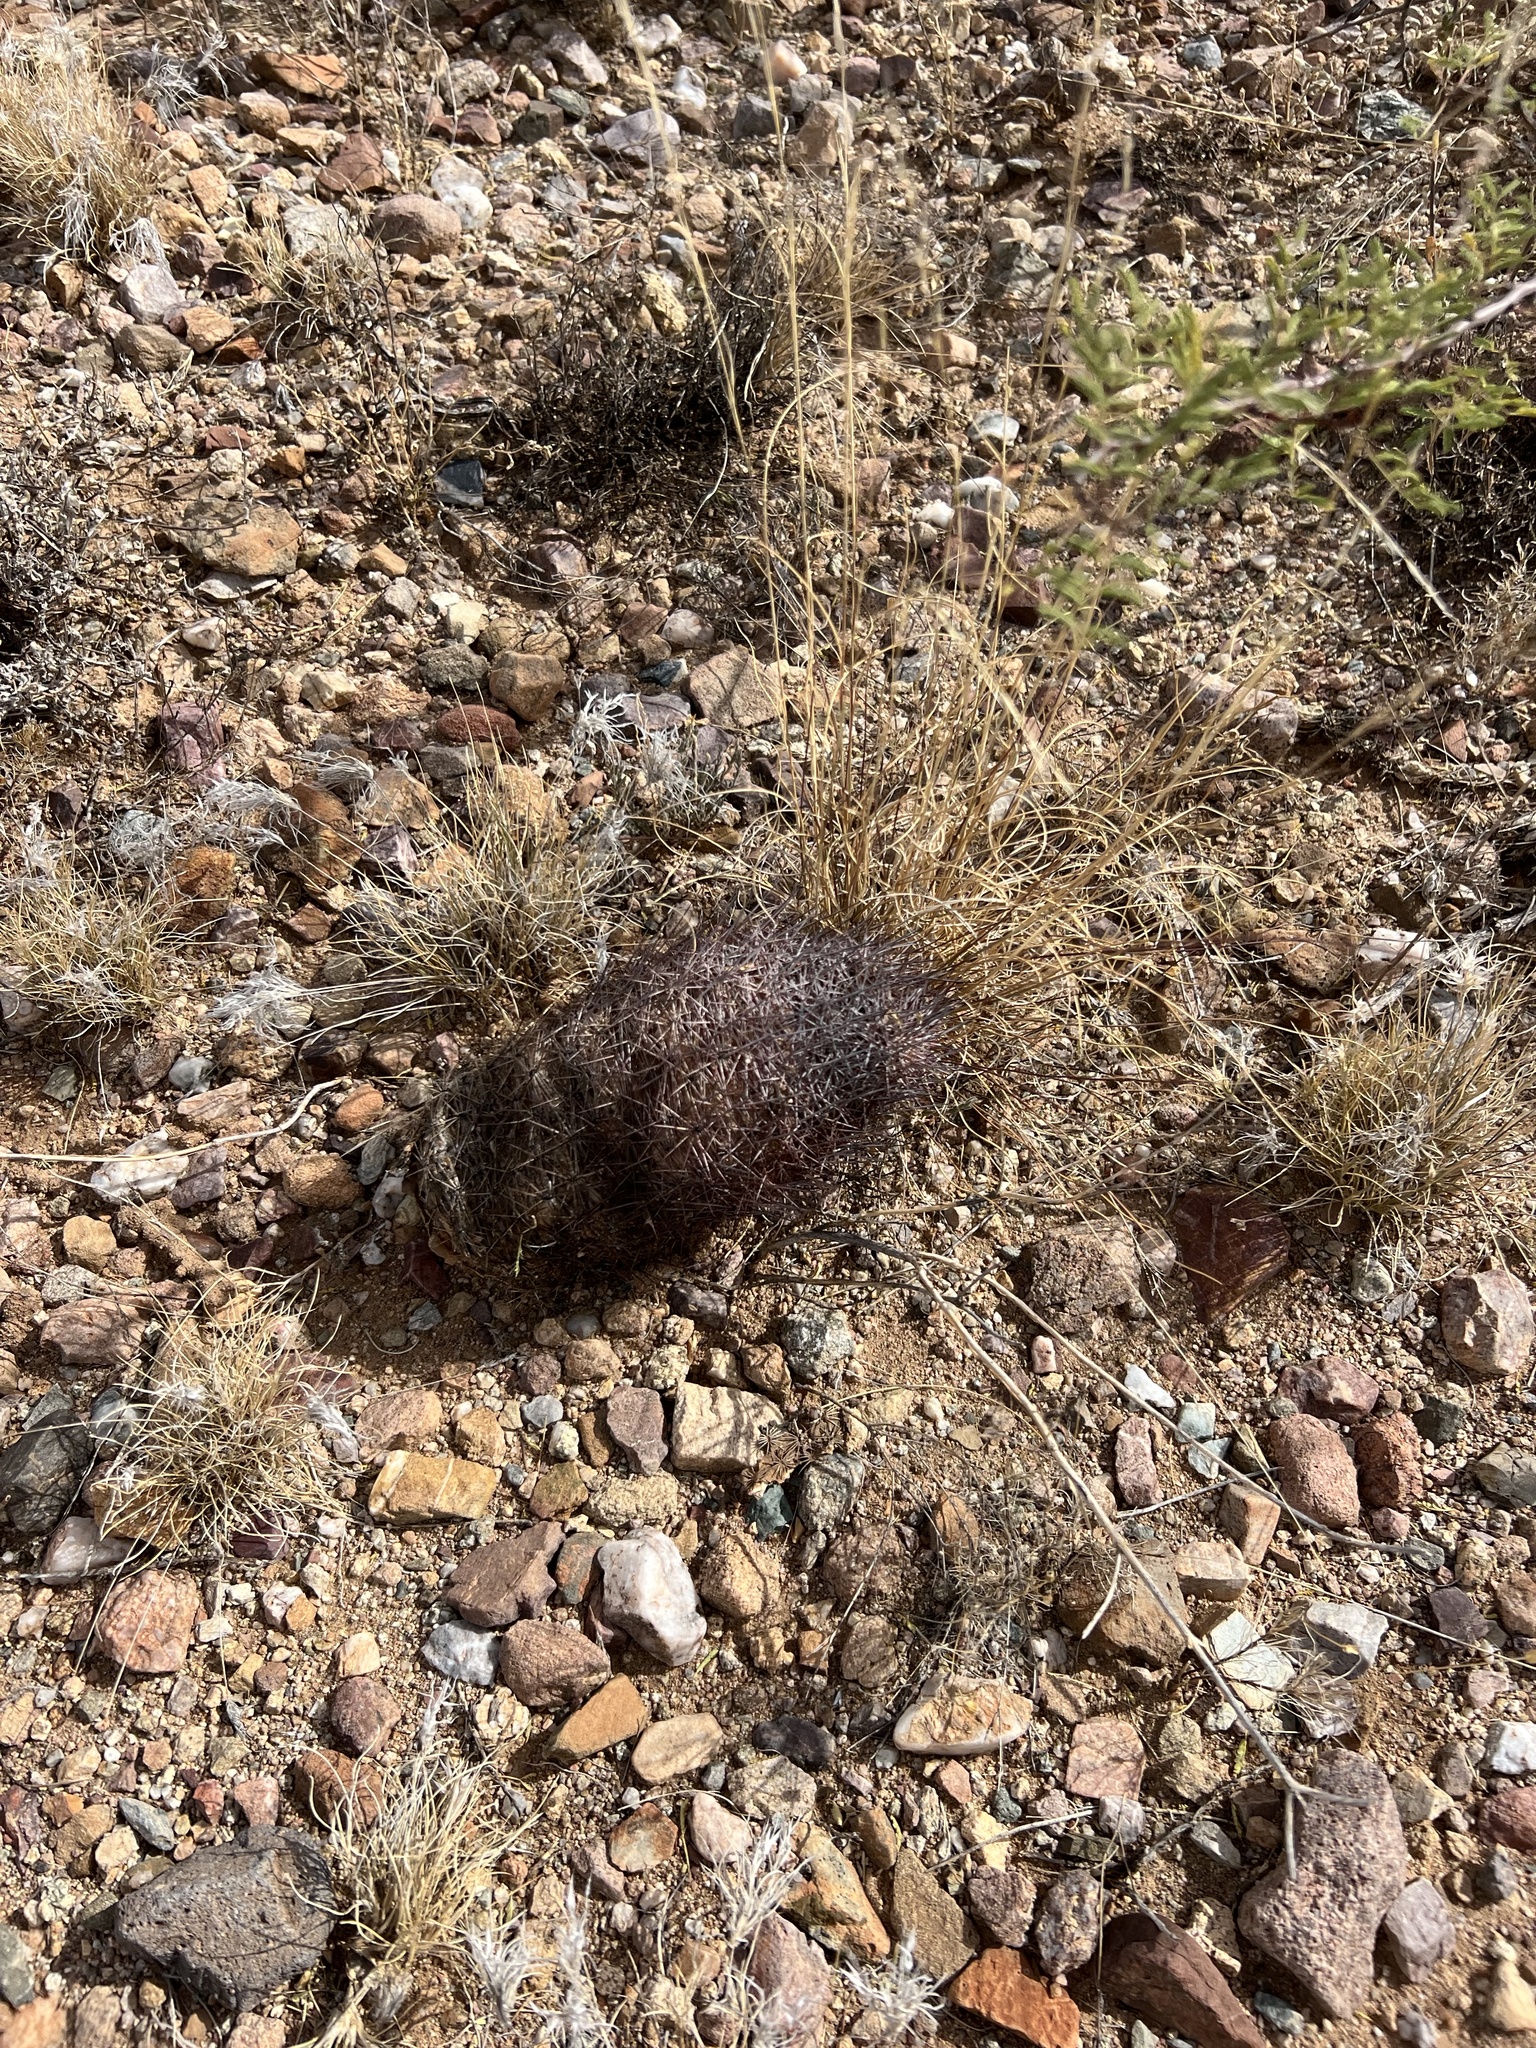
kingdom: Plantae
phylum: Tracheophyta
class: Magnoliopsida
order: Caryophyllales
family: Cactaceae
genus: Sclerocactus
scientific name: Sclerocactus johnsonii
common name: Eight-spine fishhook cactus
